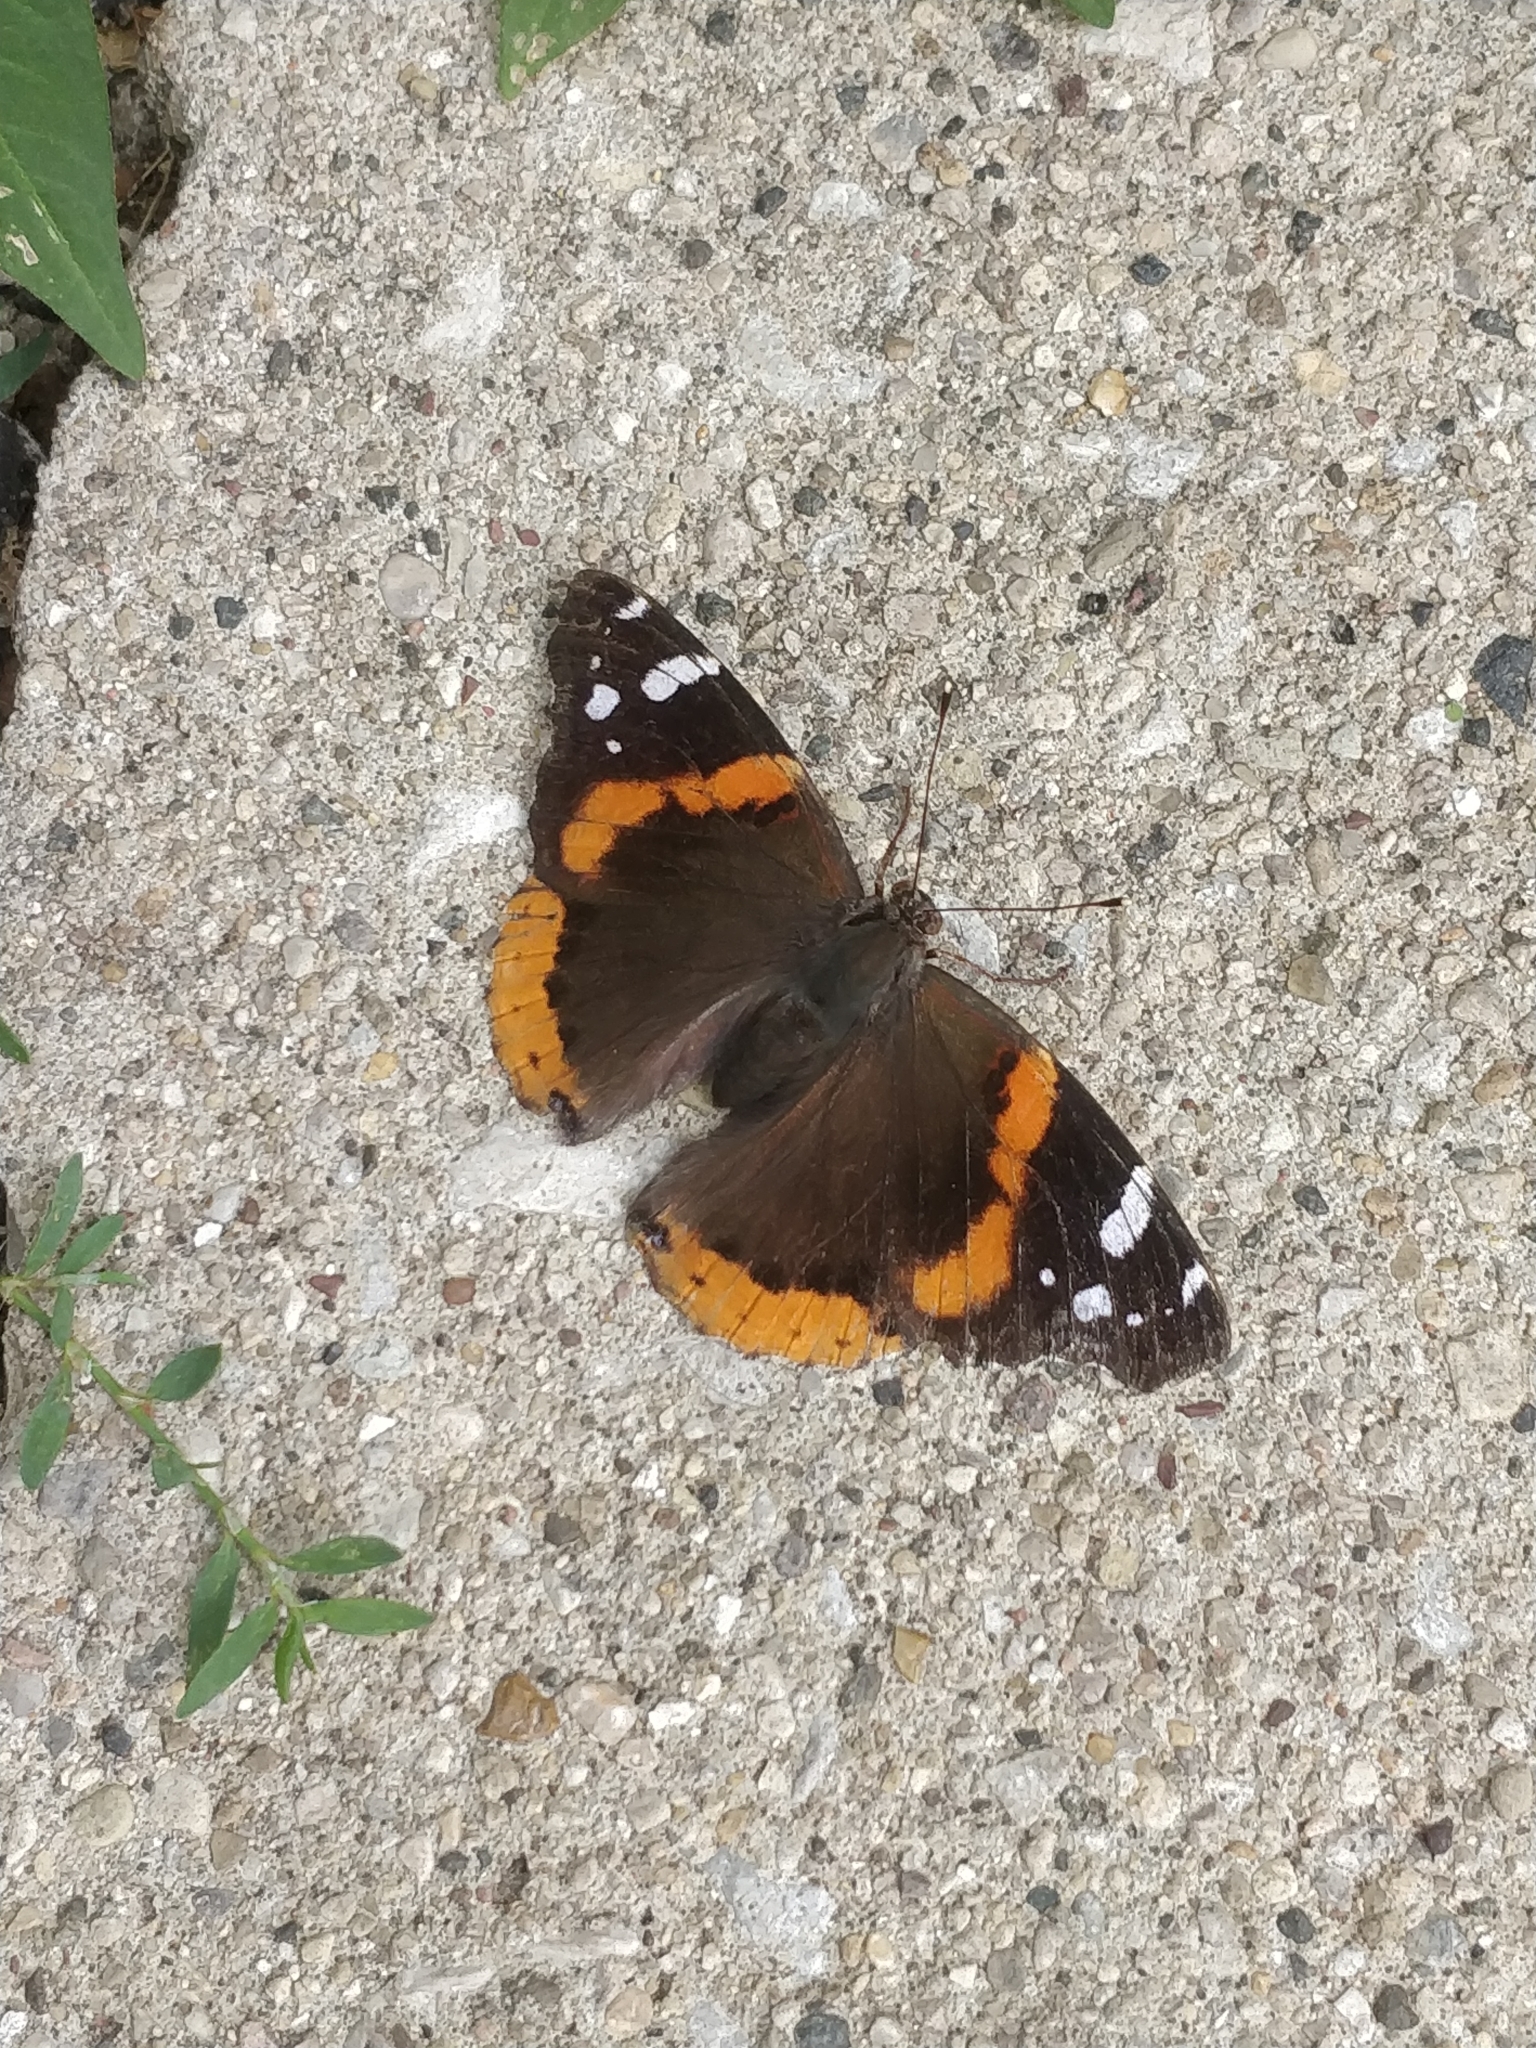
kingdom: Animalia
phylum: Arthropoda
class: Insecta
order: Lepidoptera
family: Nymphalidae
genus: Vanessa
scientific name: Vanessa atalanta
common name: Red admiral
